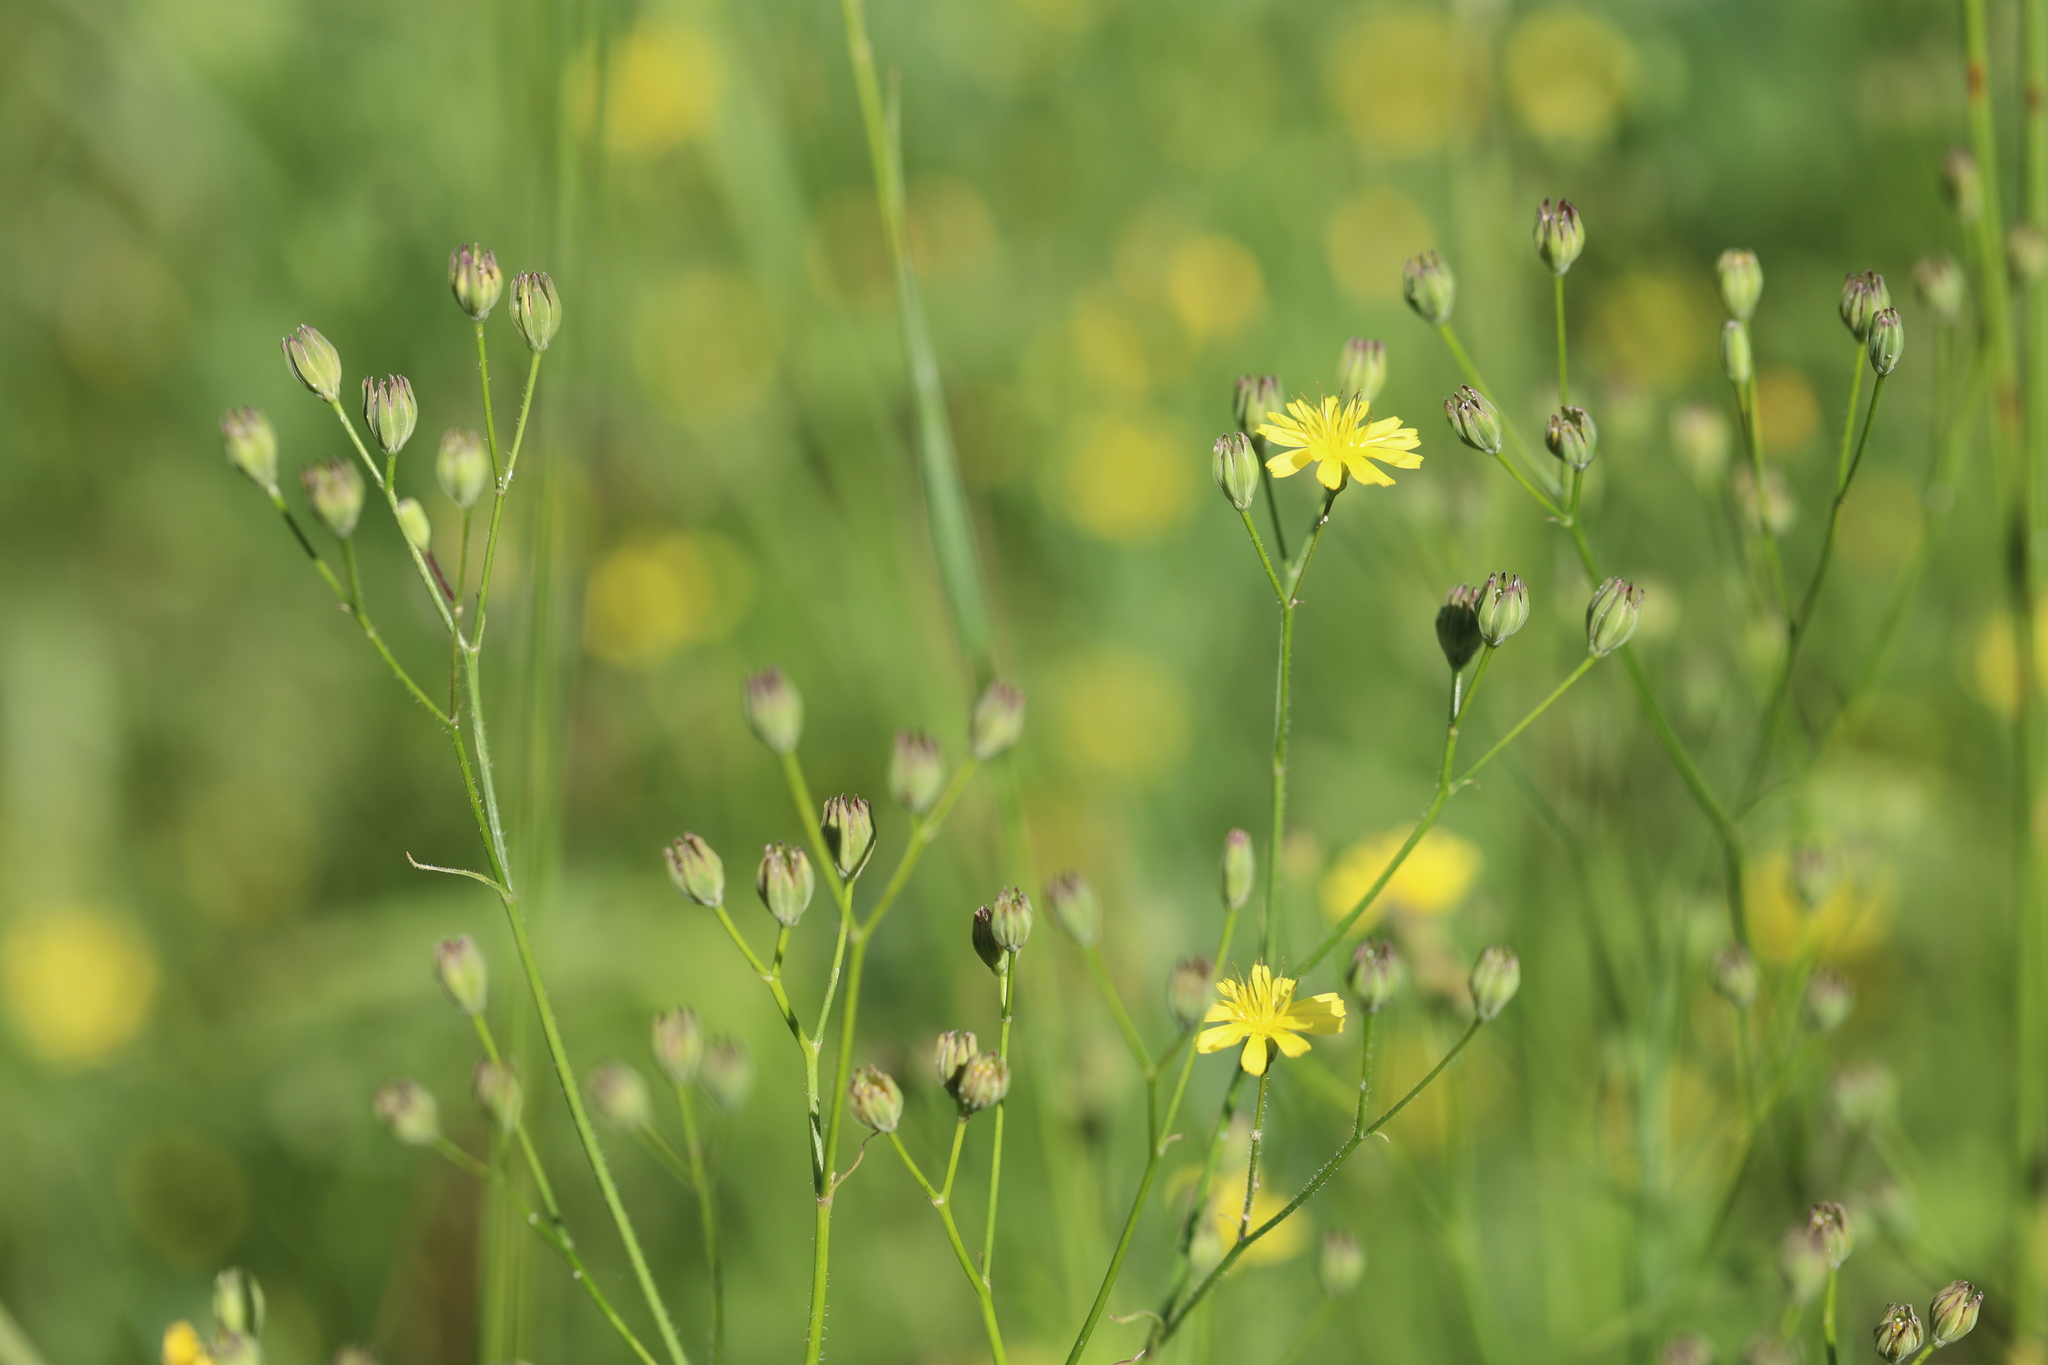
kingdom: Plantae
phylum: Tracheophyta
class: Magnoliopsida
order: Asterales
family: Asteraceae
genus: Lapsana
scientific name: Lapsana communis
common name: Nipplewort
